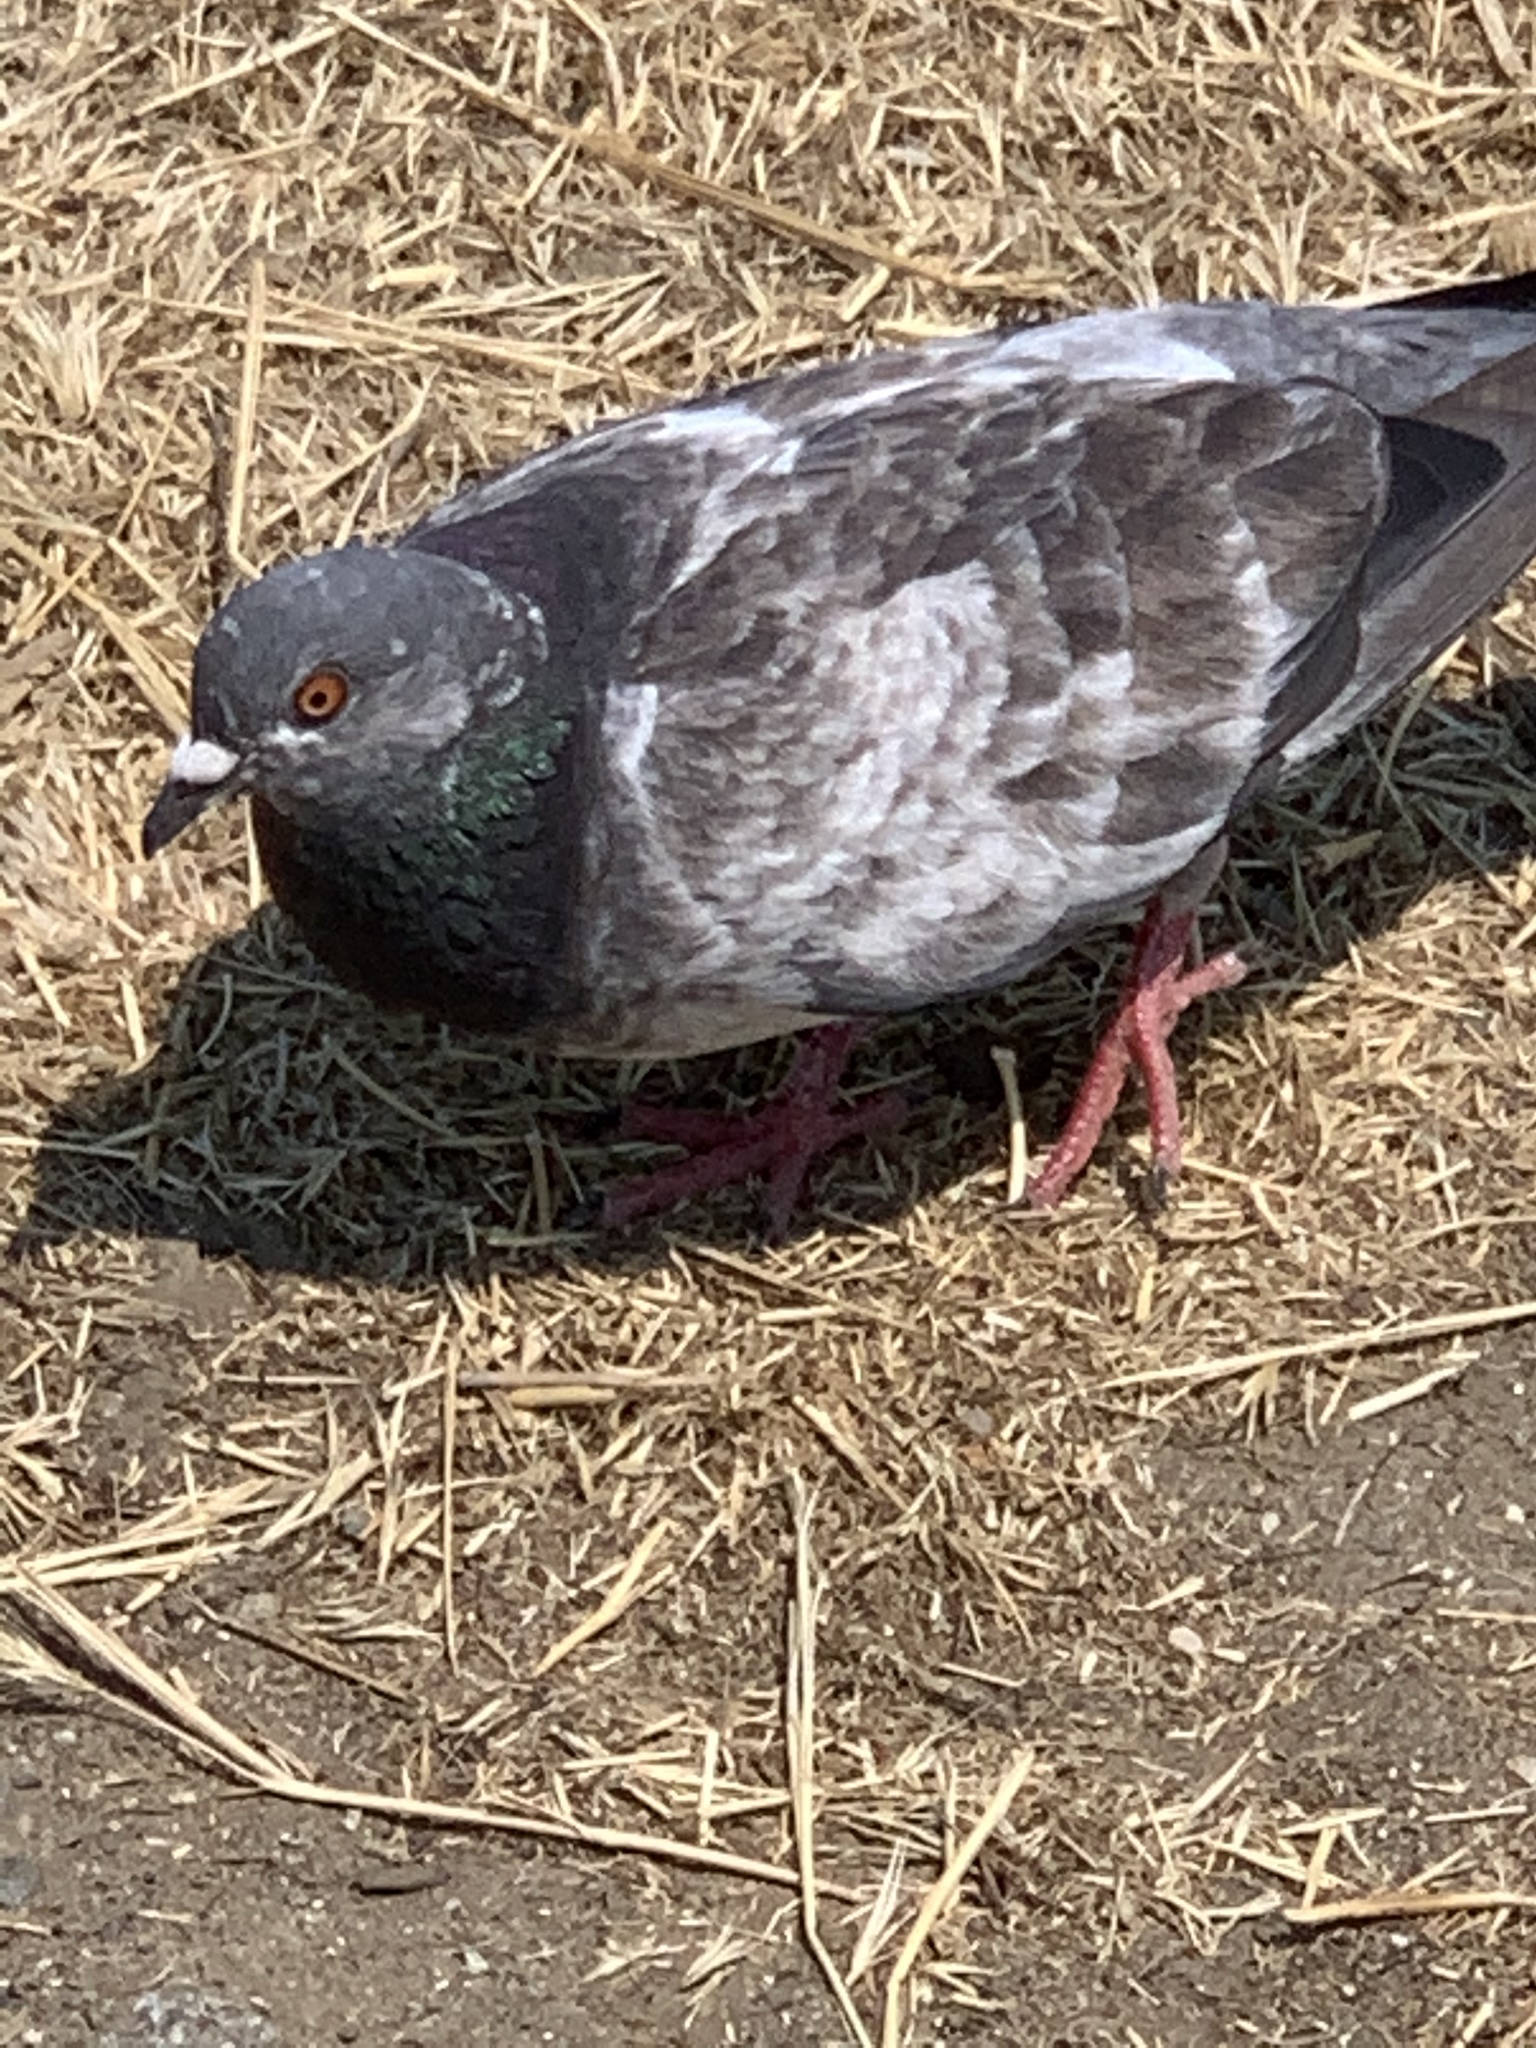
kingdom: Animalia
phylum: Chordata
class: Aves
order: Columbiformes
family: Columbidae
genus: Columba
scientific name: Columba livia
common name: Rock pigeon
